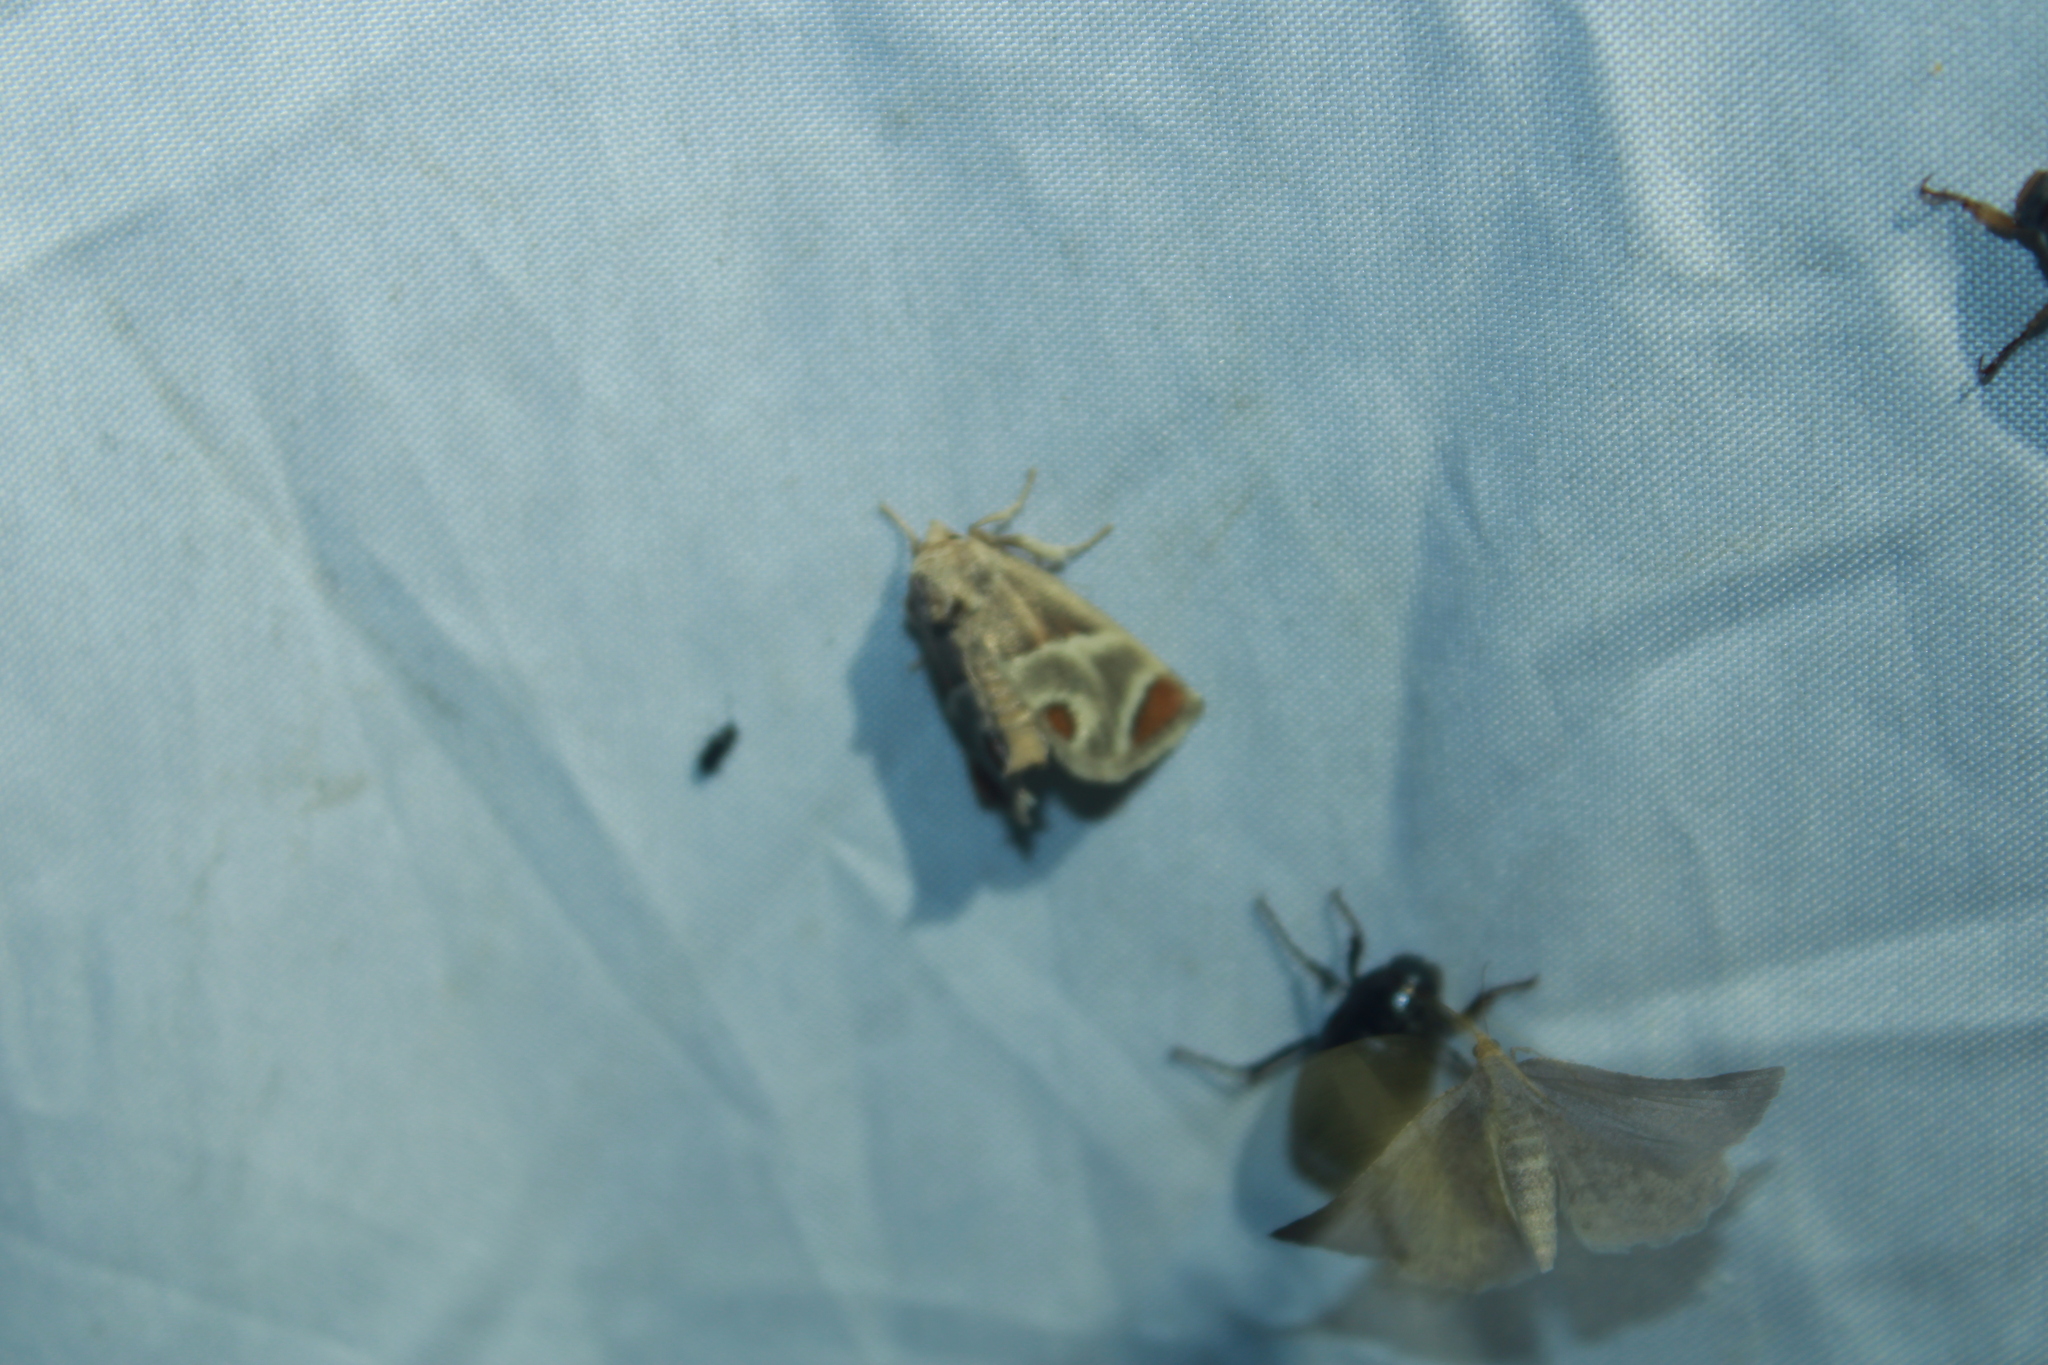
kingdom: Animalia
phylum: Arthropoda
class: Insecta
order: Lepidoptera
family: Limacodidae
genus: Apoda
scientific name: Apoda biguttata
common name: Shagreened slug moth
